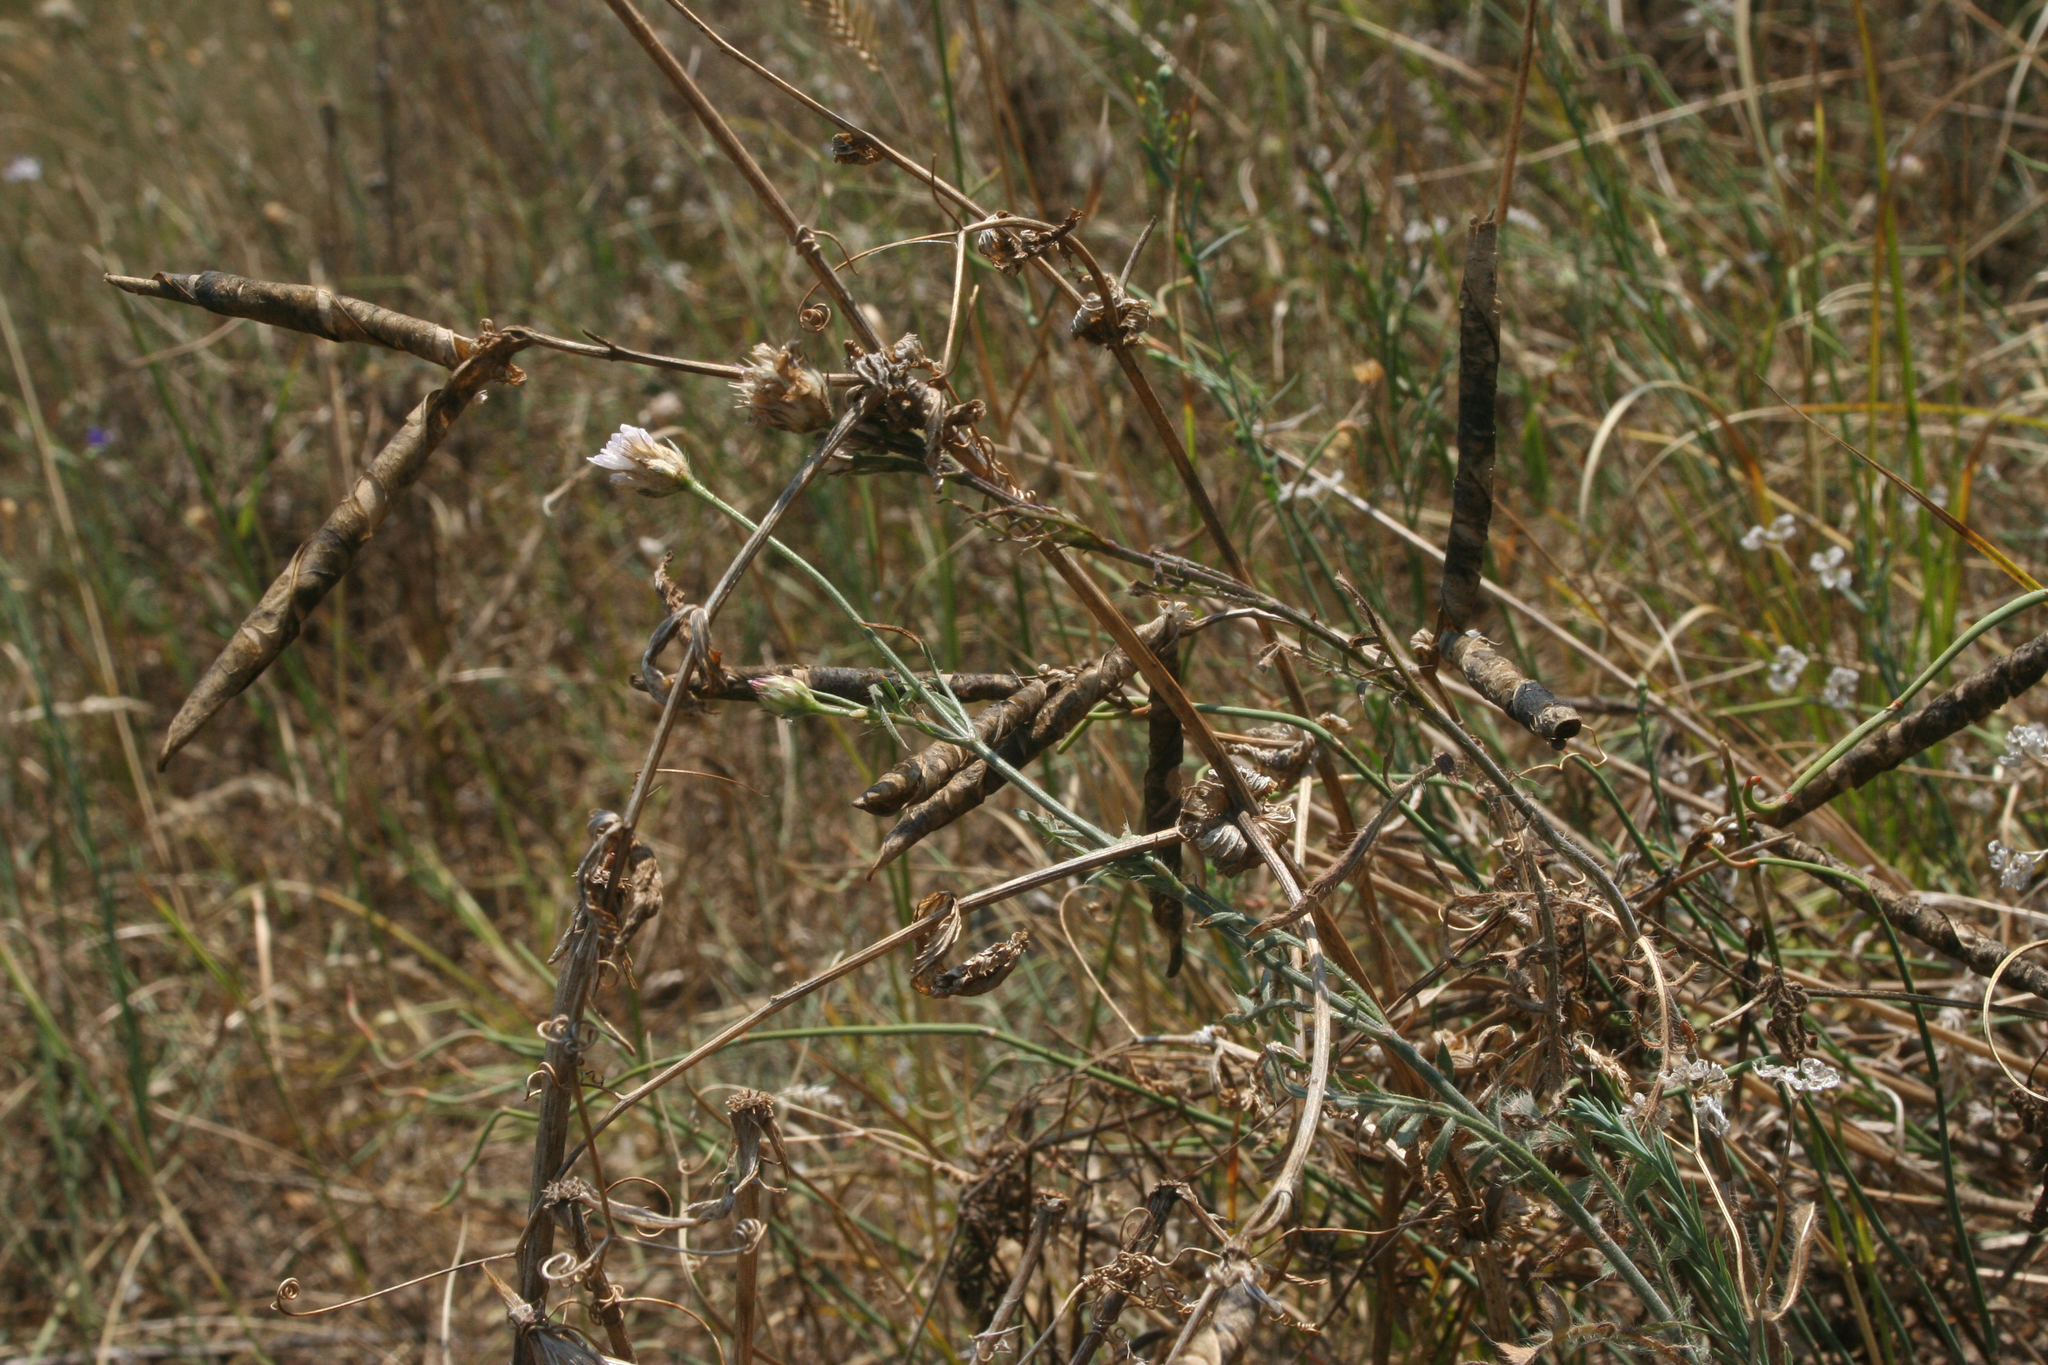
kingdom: Plantae
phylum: Tracheophyta
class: Magnoliopsida
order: Fabales
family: Fabaceae
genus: Lathyrus
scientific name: Lathyrus oleraceus
